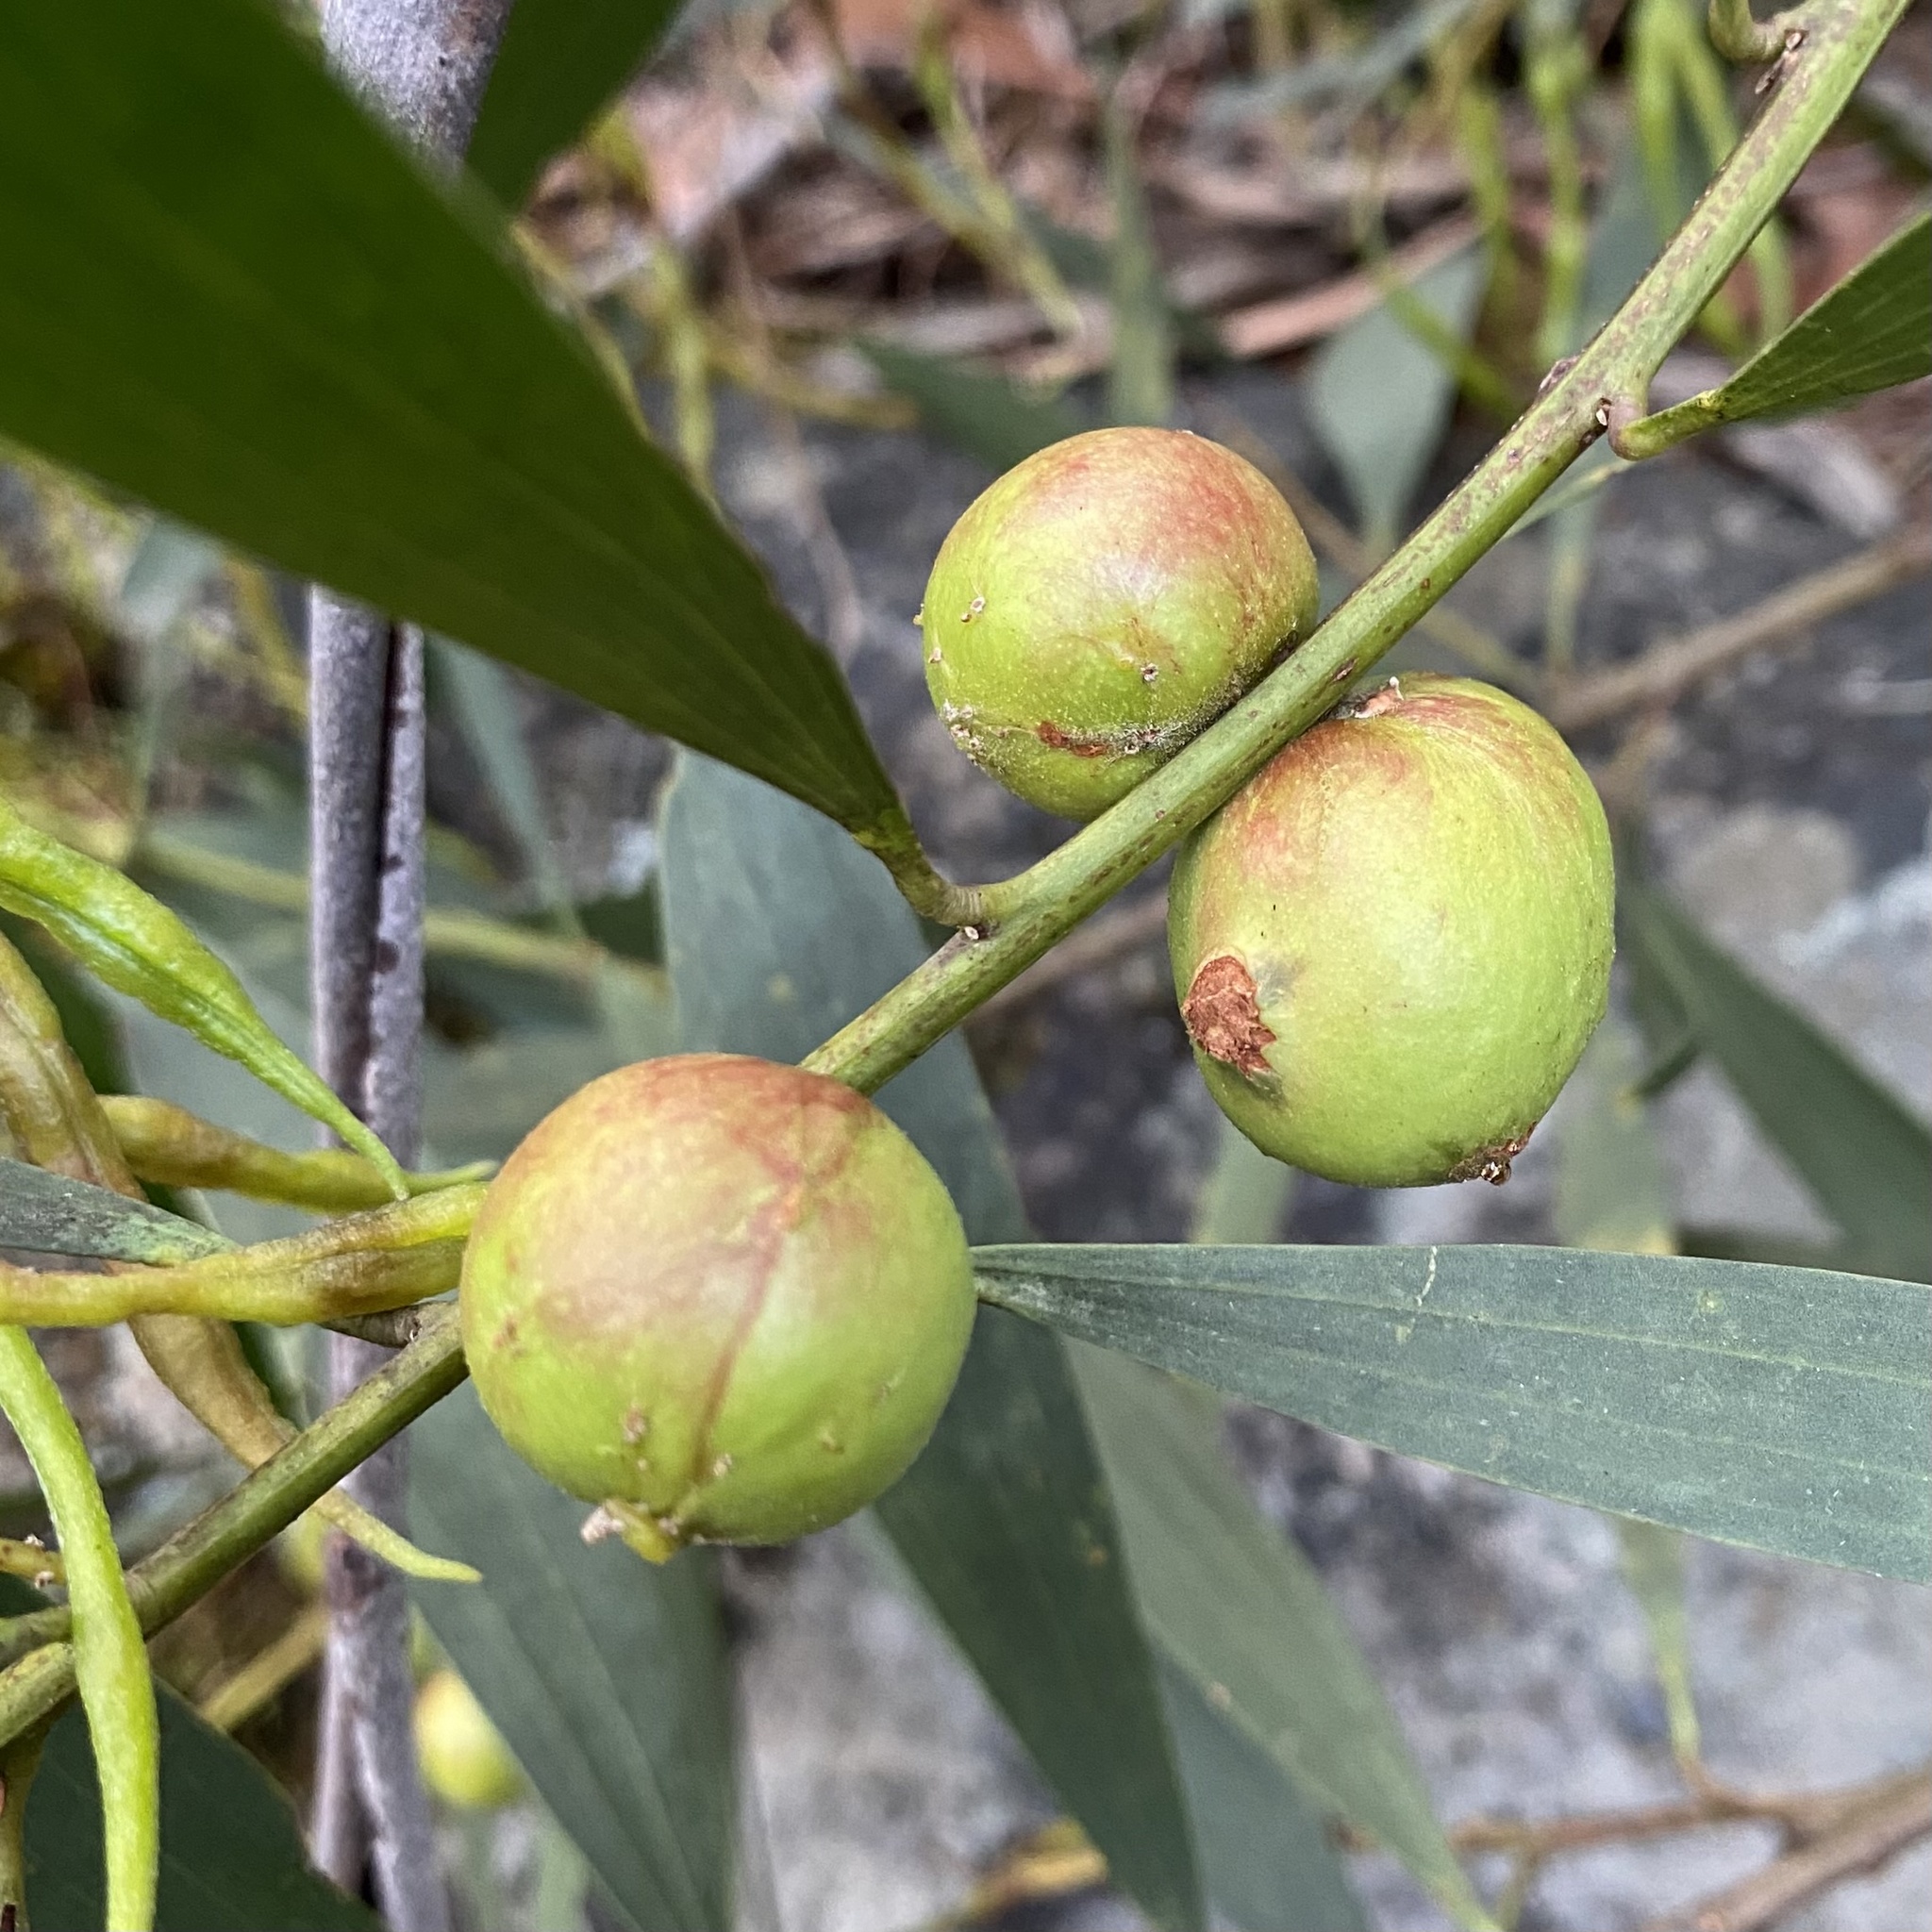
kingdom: Plantae
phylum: Tracheophyta
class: Magnoliopsida
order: Fabales
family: Fabaceae
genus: Acacia
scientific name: Acacia longifolia
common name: Sydney golden wattle
